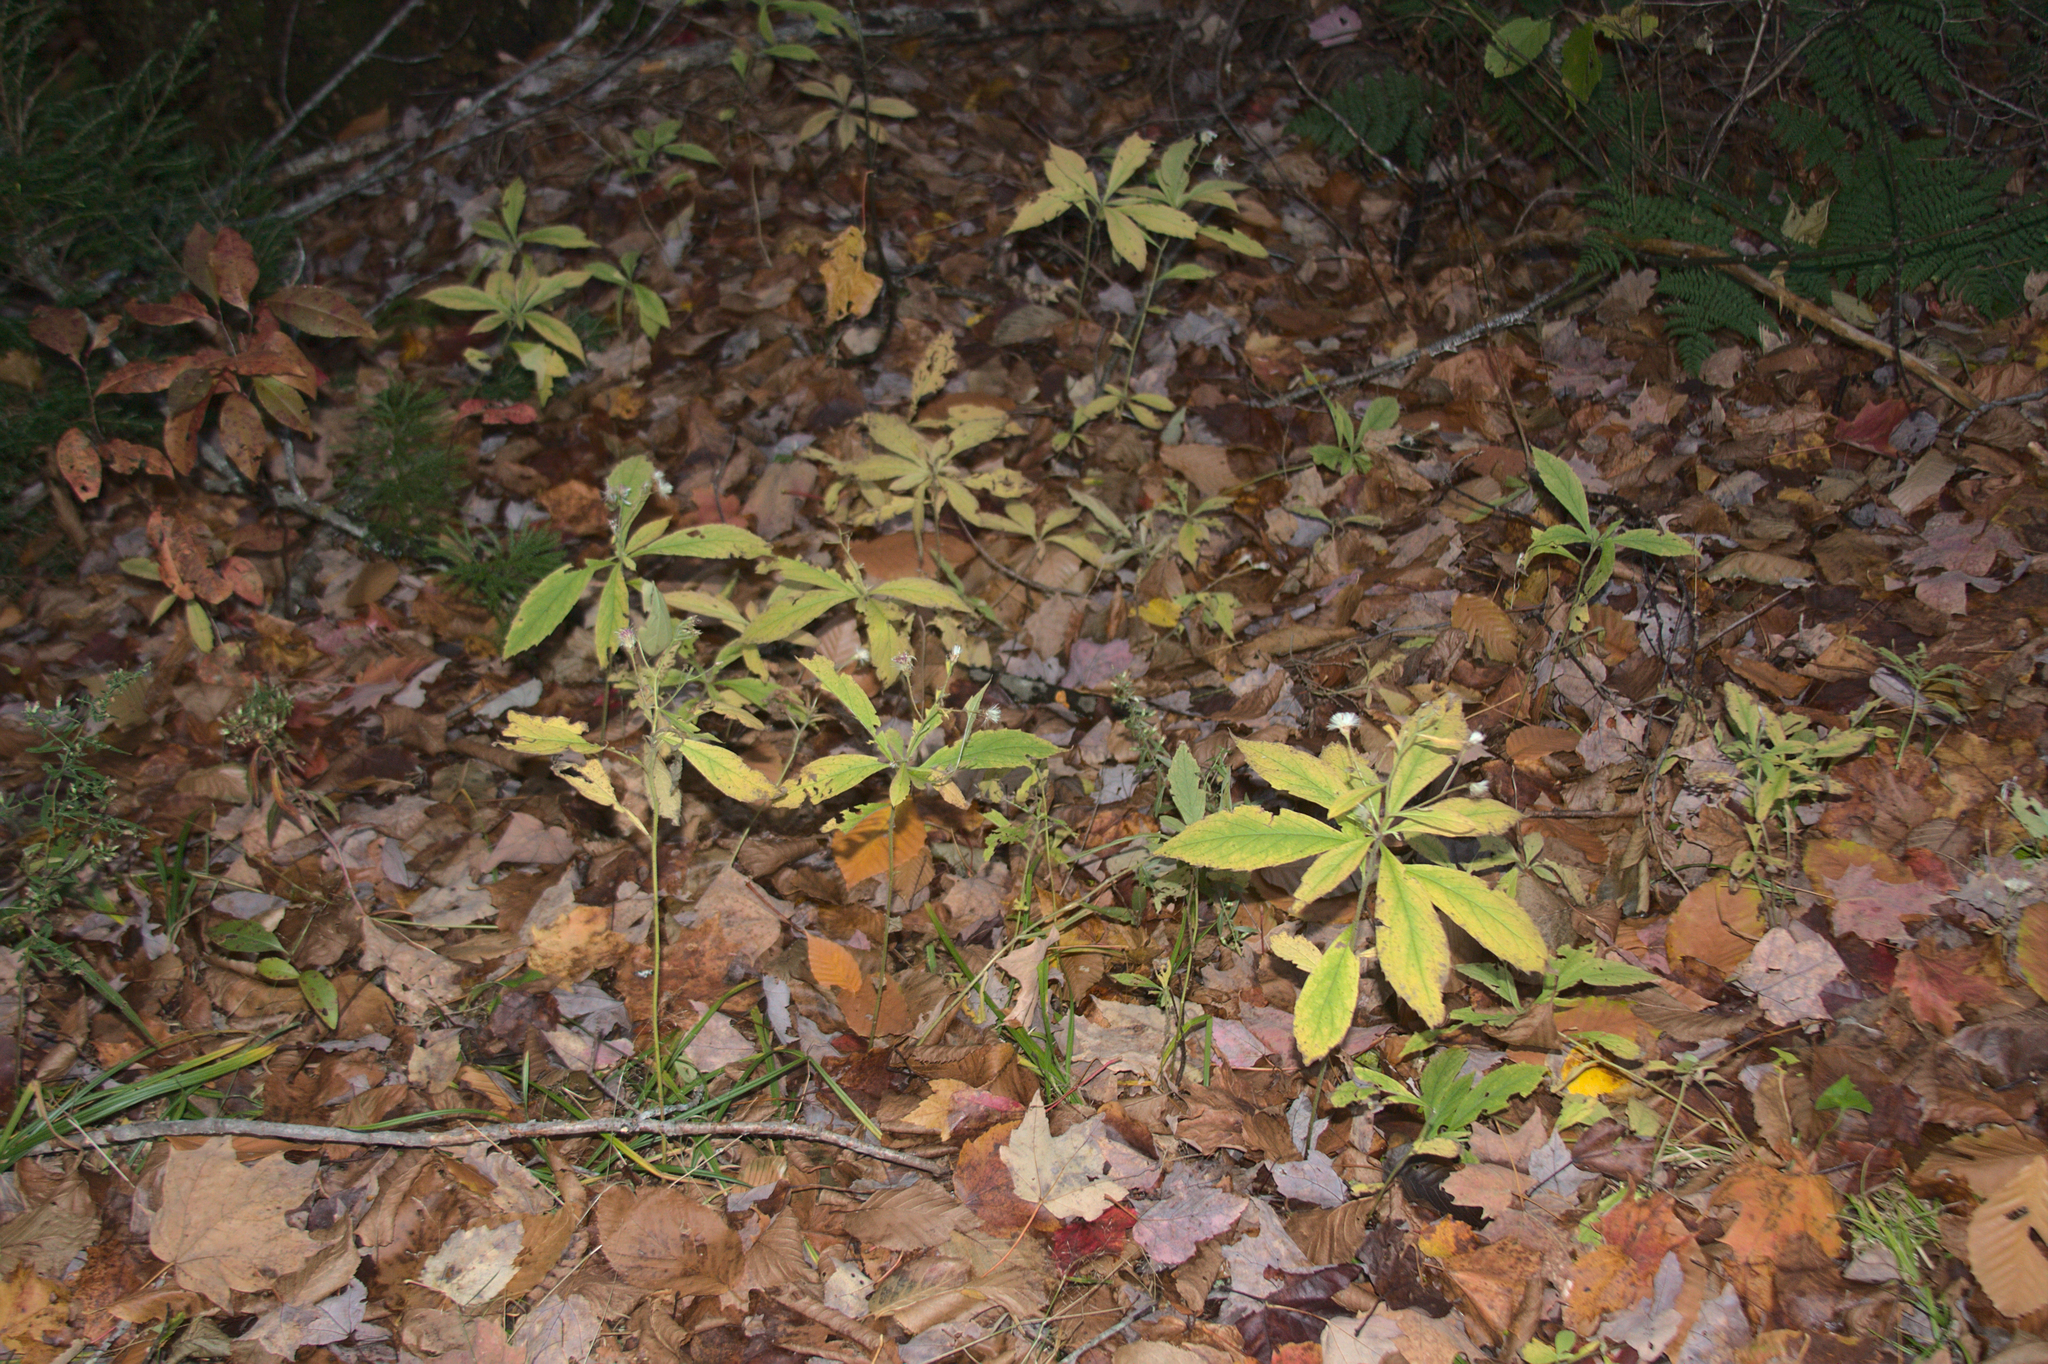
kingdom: Plantae
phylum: Tracheophyta
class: Magnoliopsida
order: Asterales
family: Asteraceae
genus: Oclemena
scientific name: Oclemena acuminata
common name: Mountain aster
